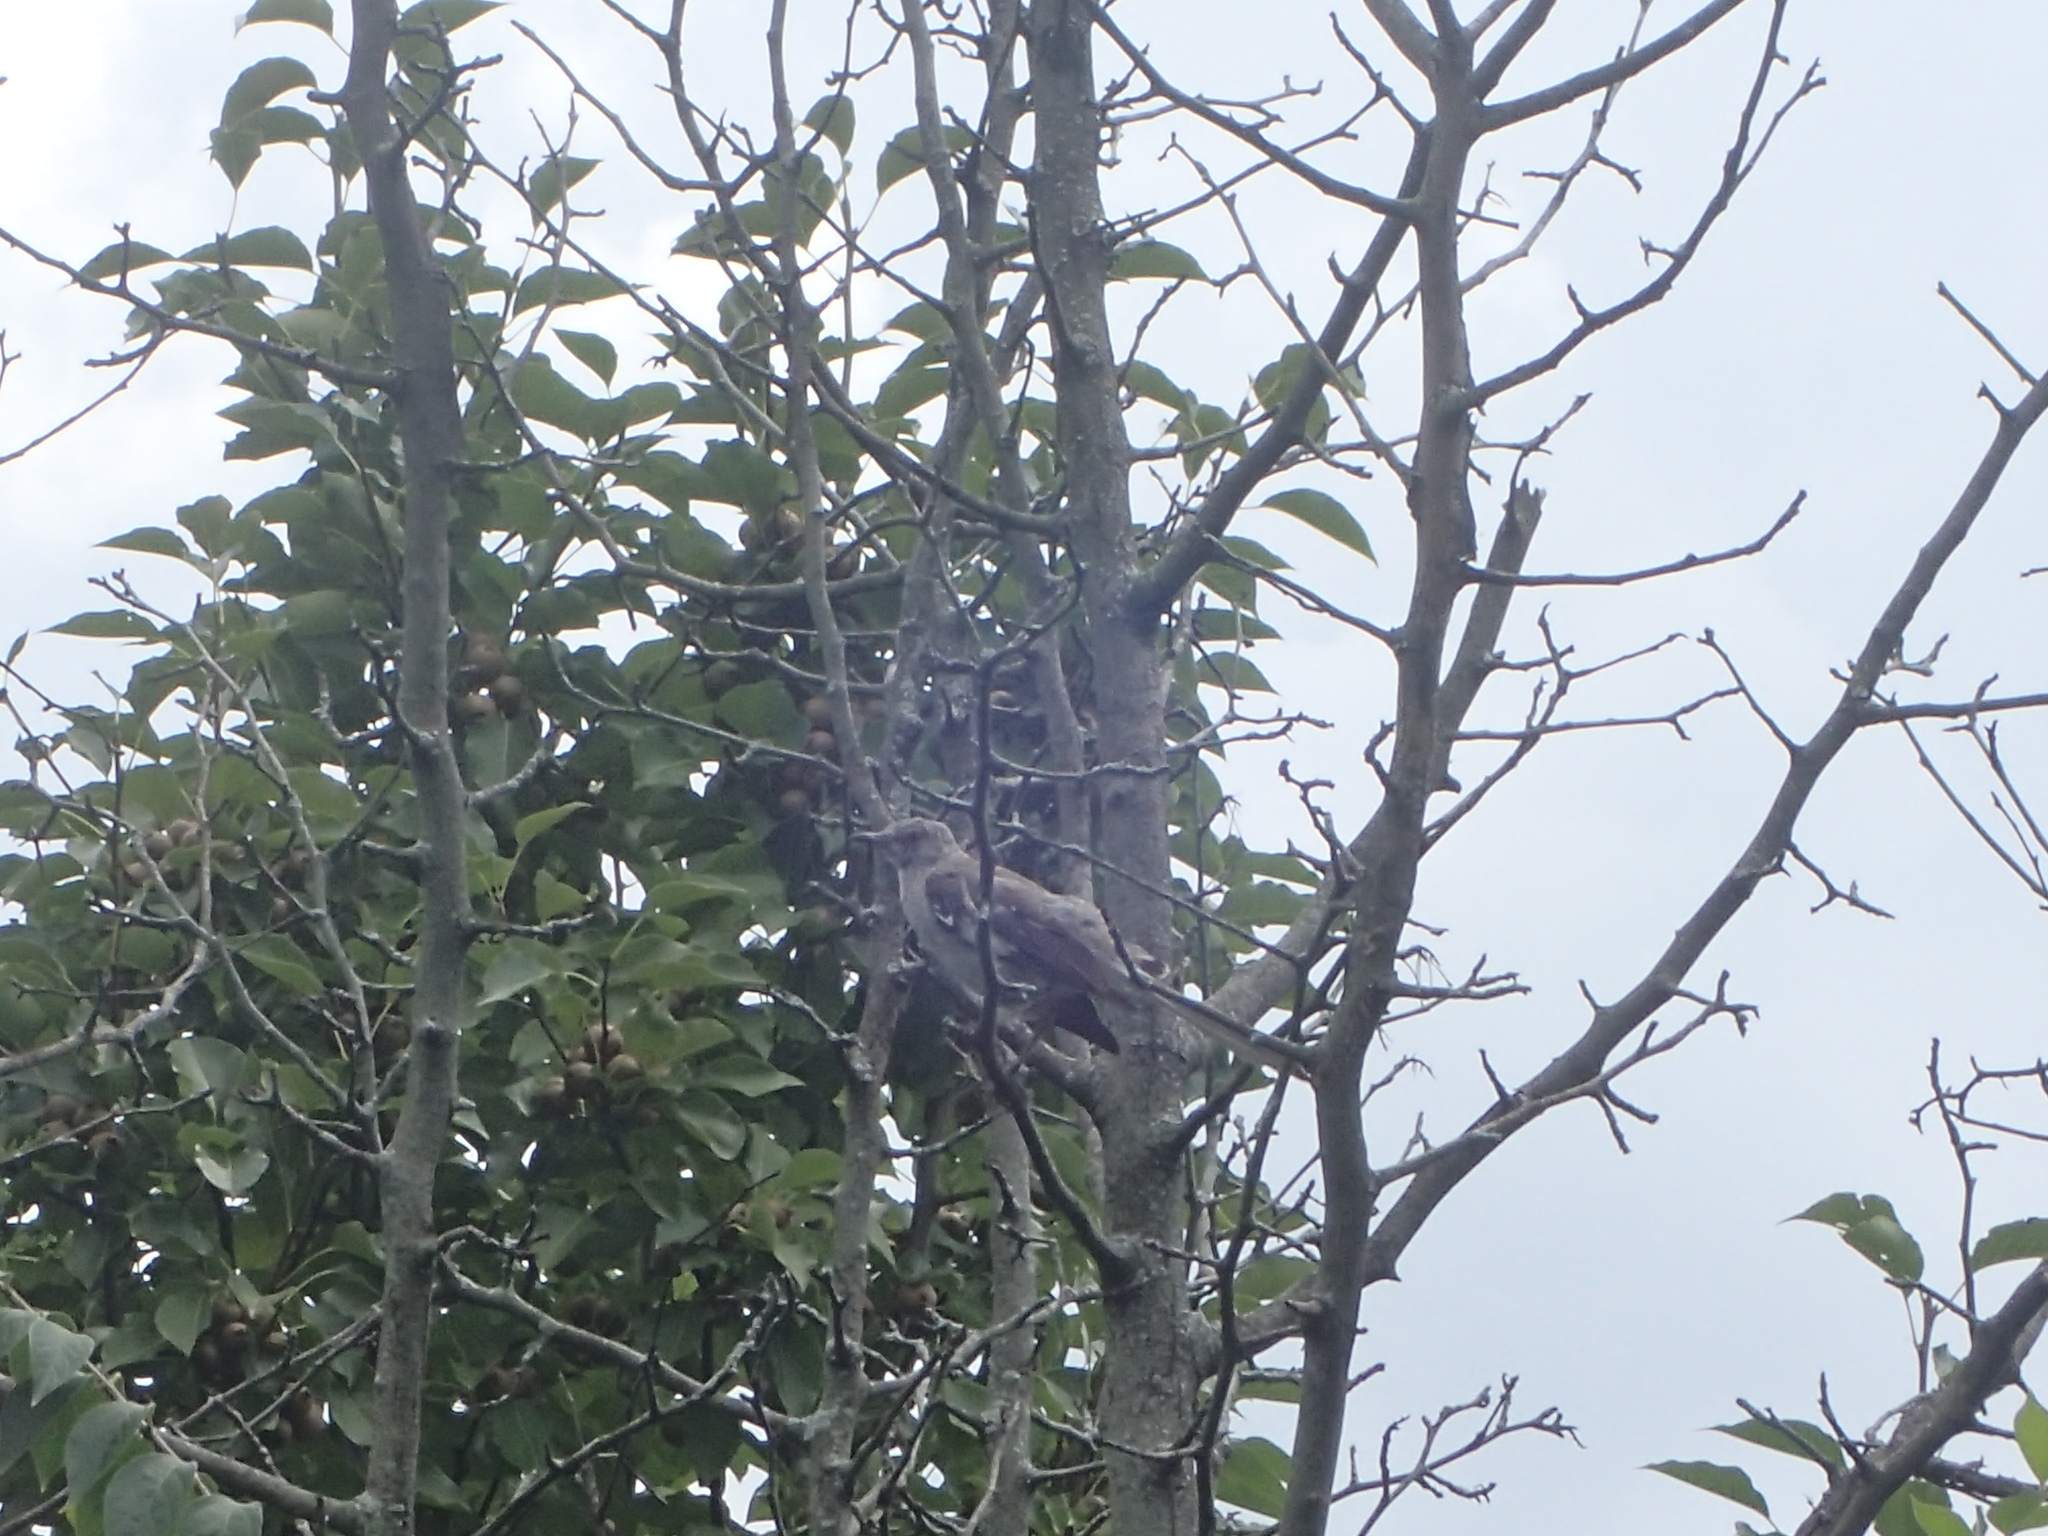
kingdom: Animalia
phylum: Chordata
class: Aves
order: Passeriformes
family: Mimidae
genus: Mimus
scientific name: Mimus polyglottos
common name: Northern mockingbird
